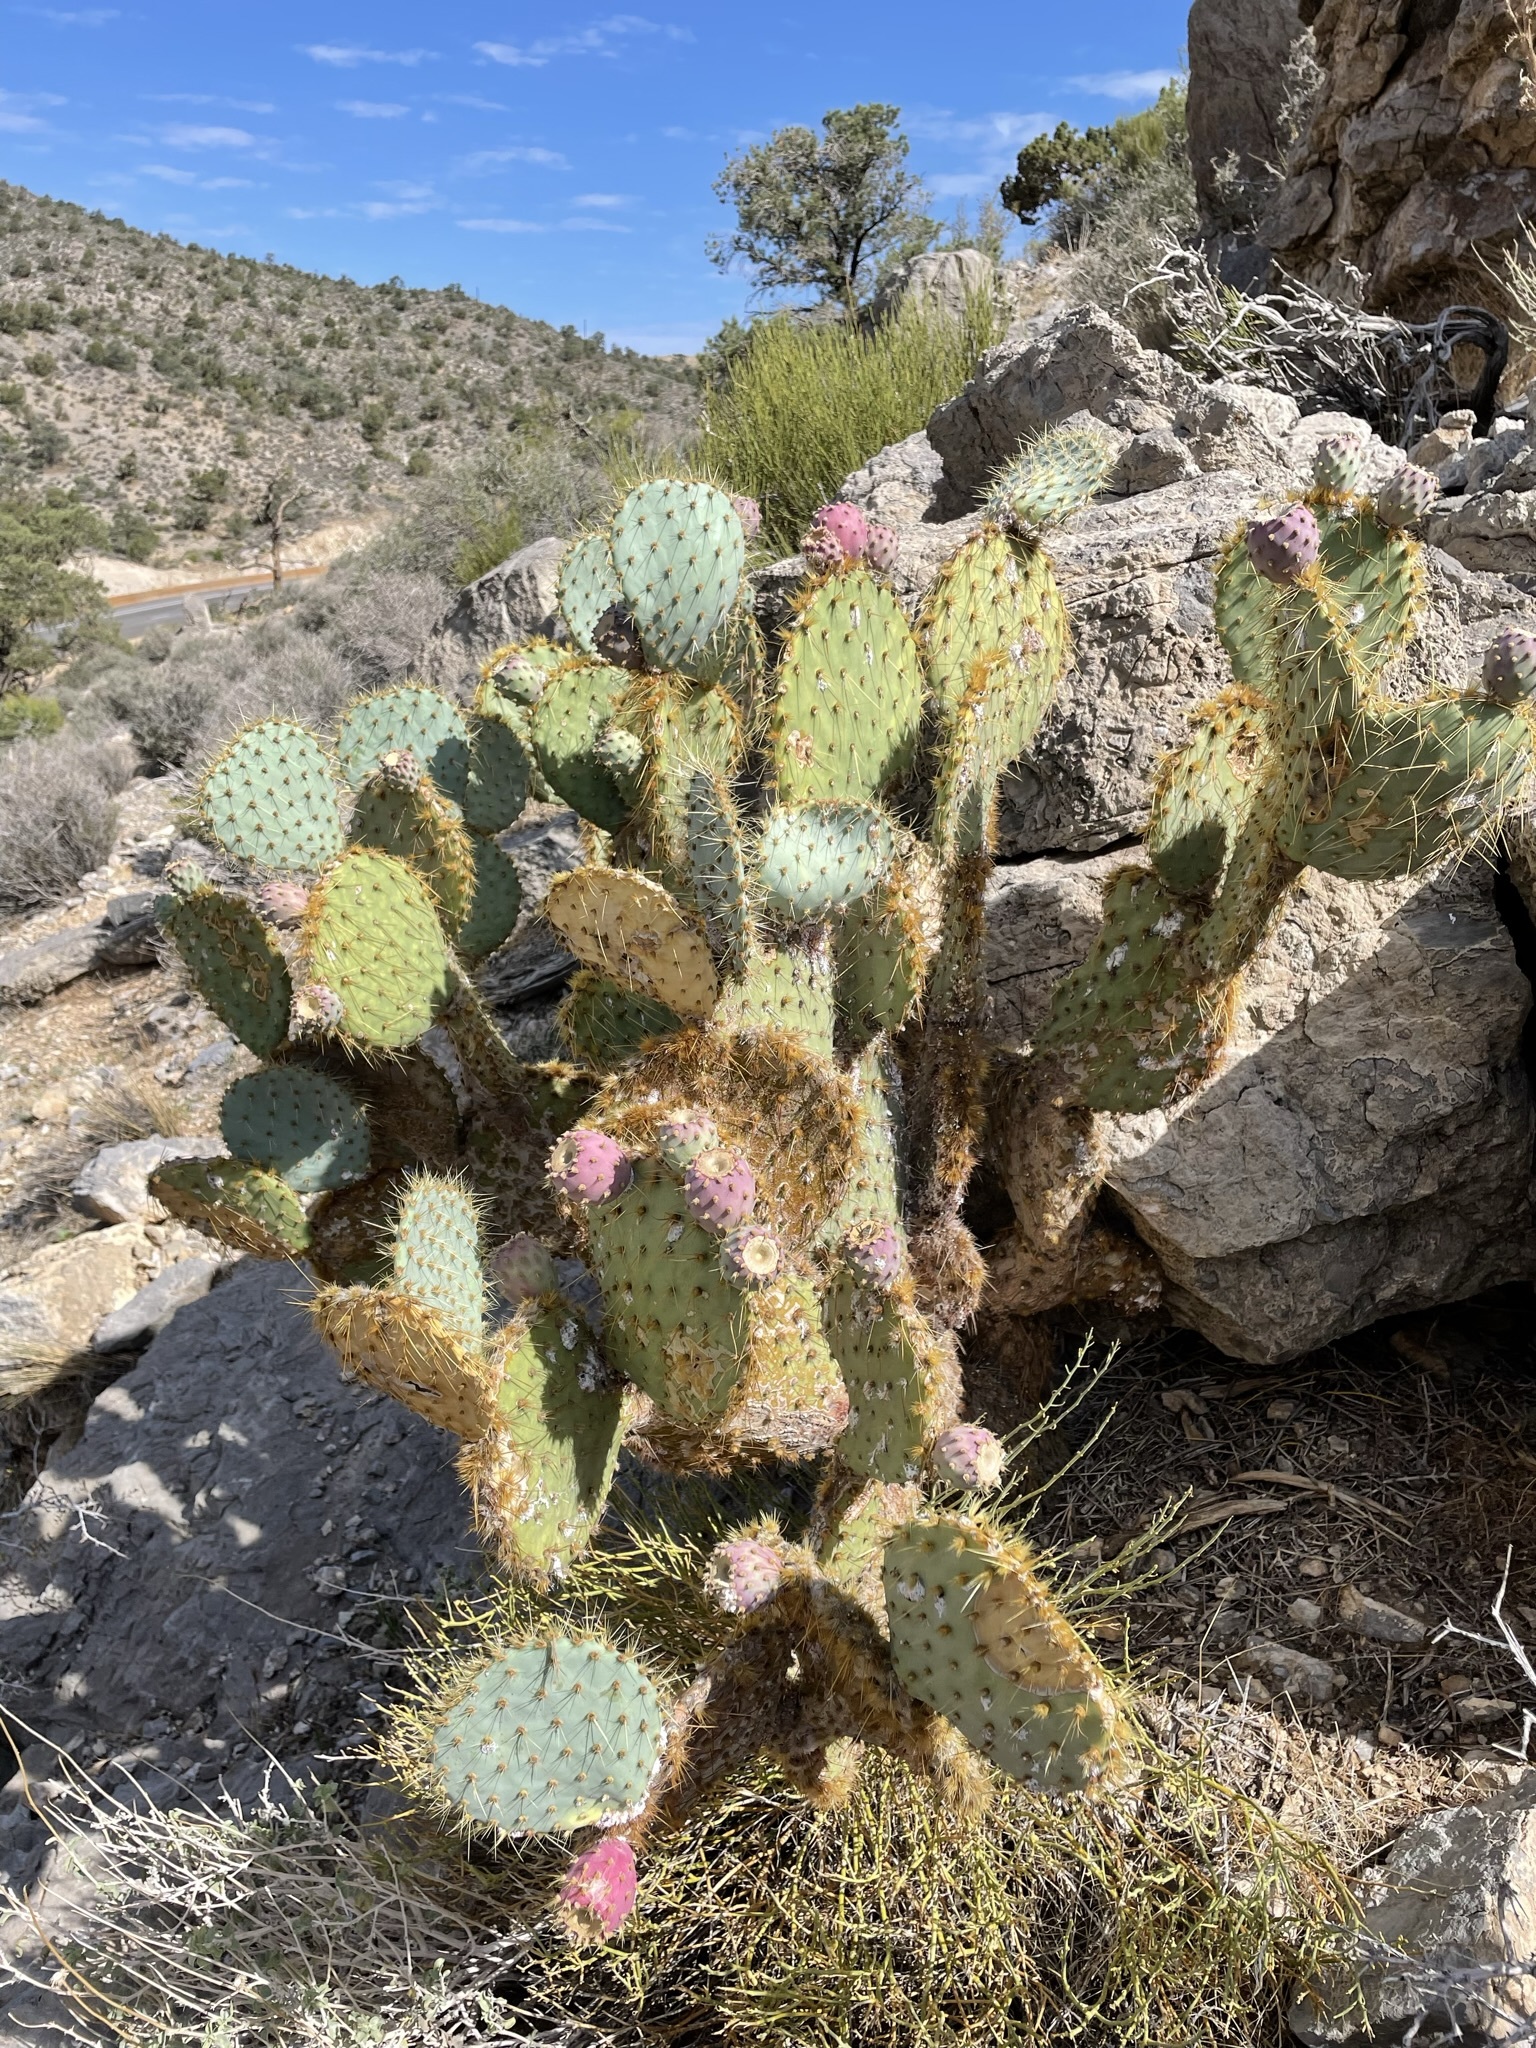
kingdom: Plantae
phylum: Tracheophyta
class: Magnoliopsida
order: Caryophyllales
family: Cactaceae
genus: Opuntia
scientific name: Opuntia chlorotica
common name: Dollar-joint prickly-pear
